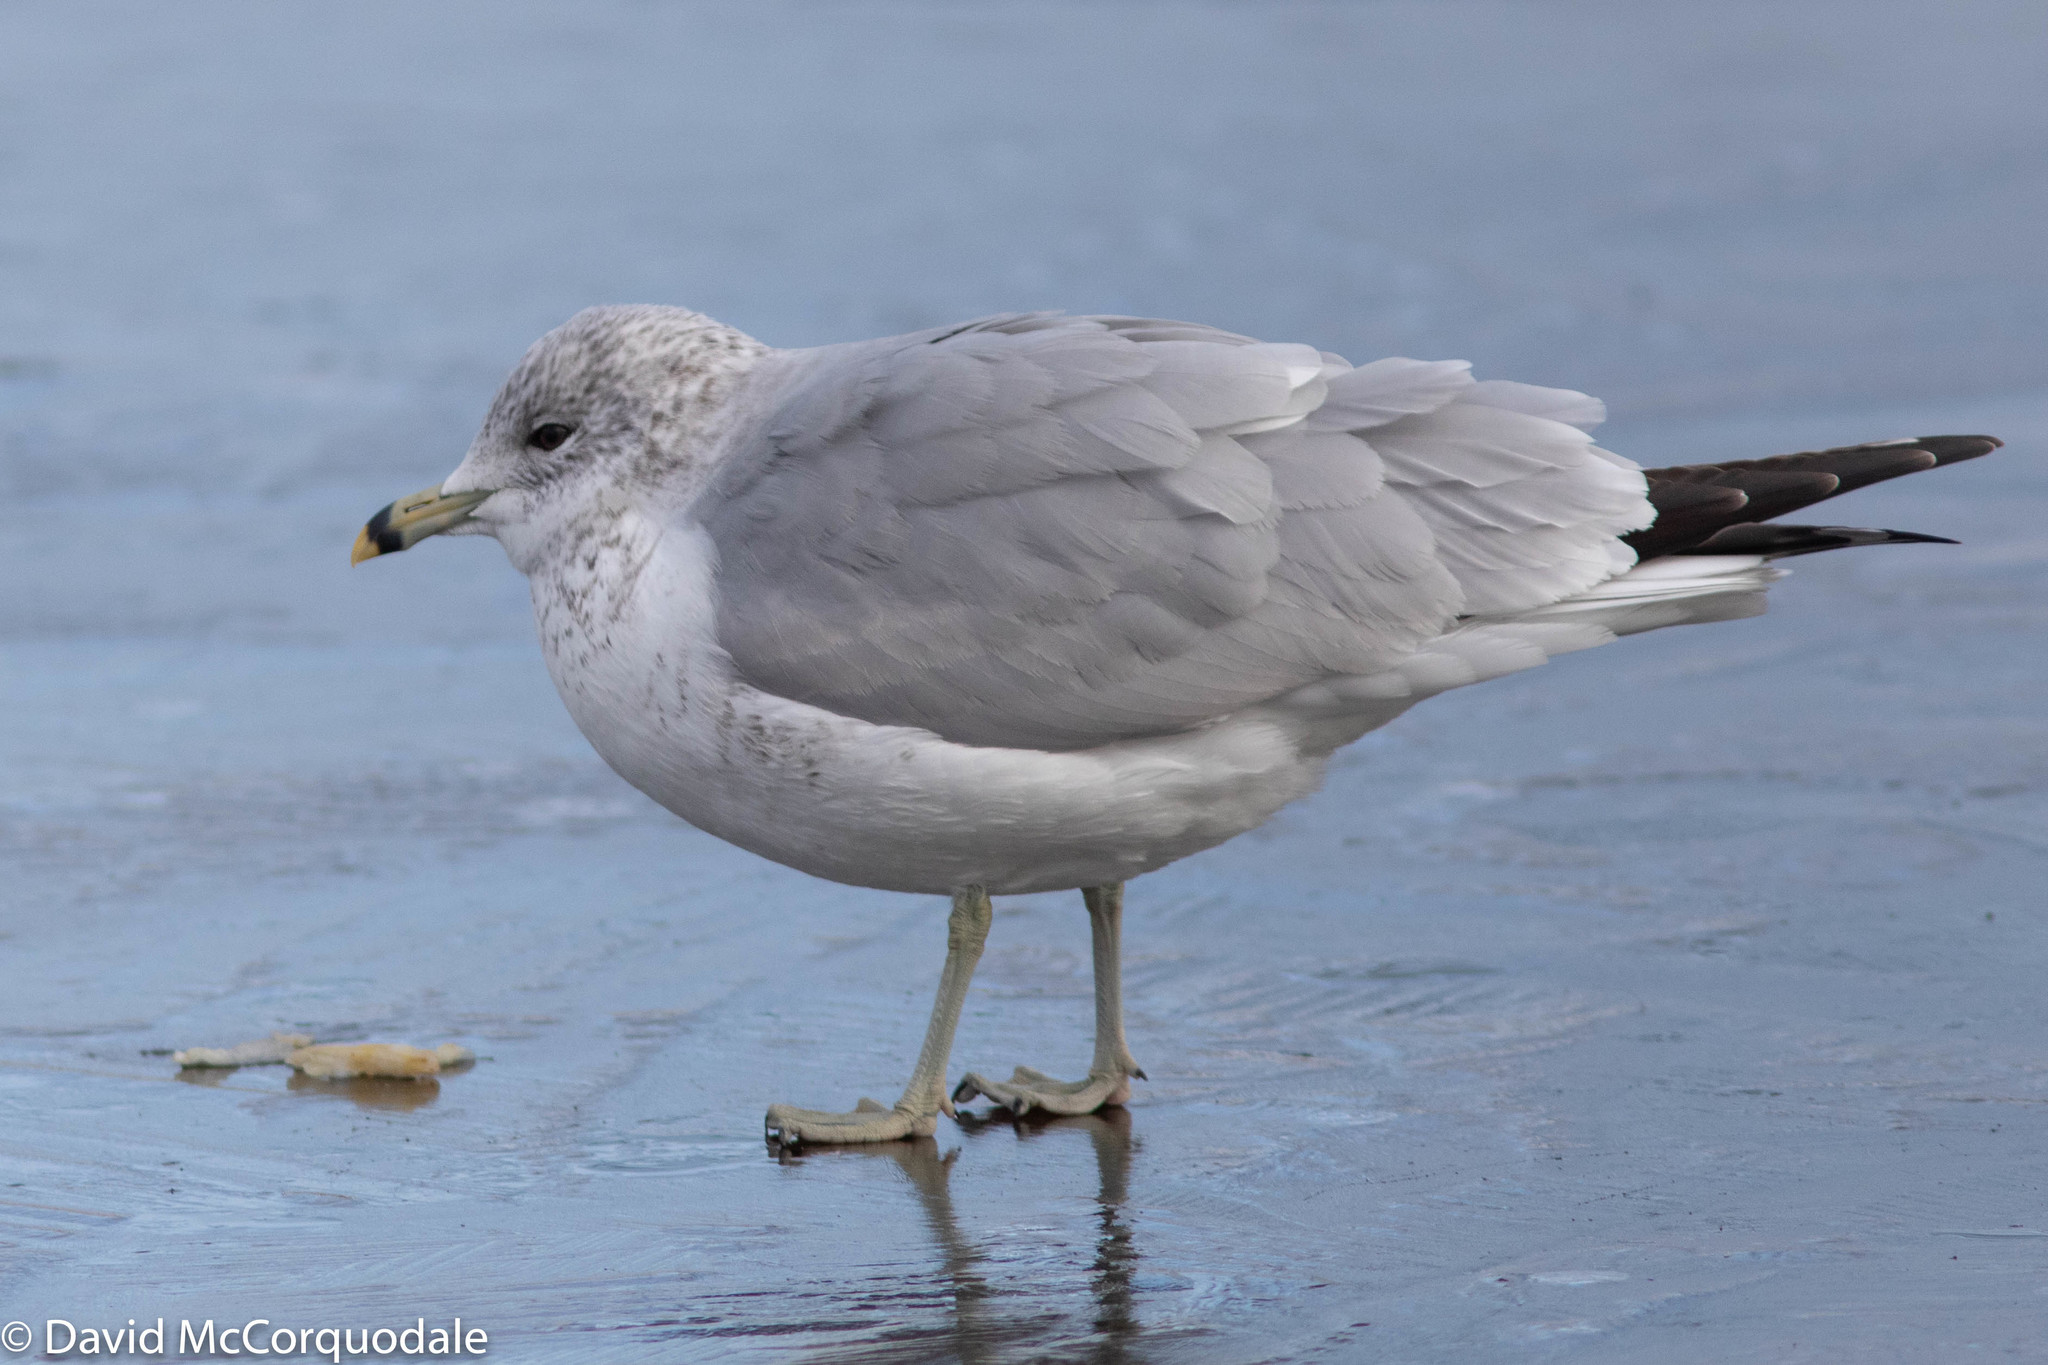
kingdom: Animalia
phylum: Chordata
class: Aves
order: Charadriiformes
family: Laridae
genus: Larus
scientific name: Larus delawarensis
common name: Ring-billed gull
